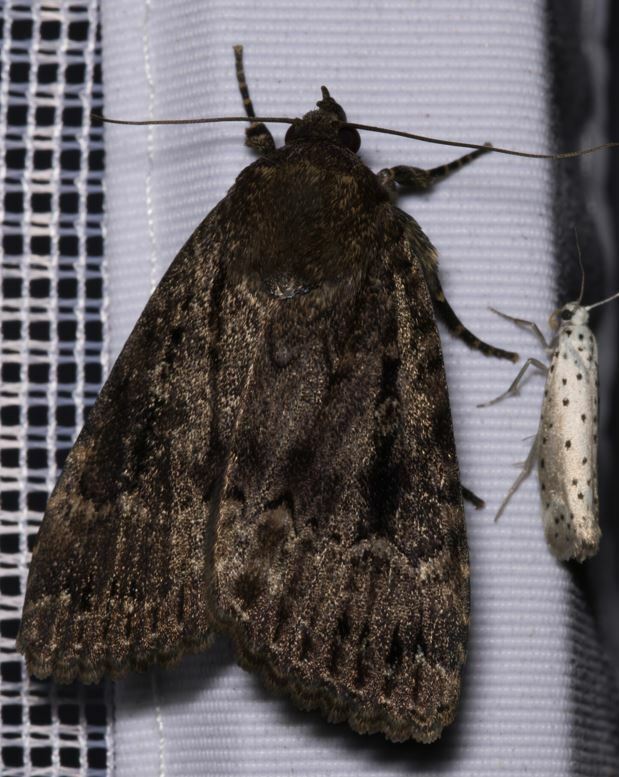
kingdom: Animalia
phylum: Arthropoda
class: Insecta
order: Lepidoptera
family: Noctuidae
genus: Amphipyra
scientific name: Amphipyra pyramidea
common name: Copper underwing
